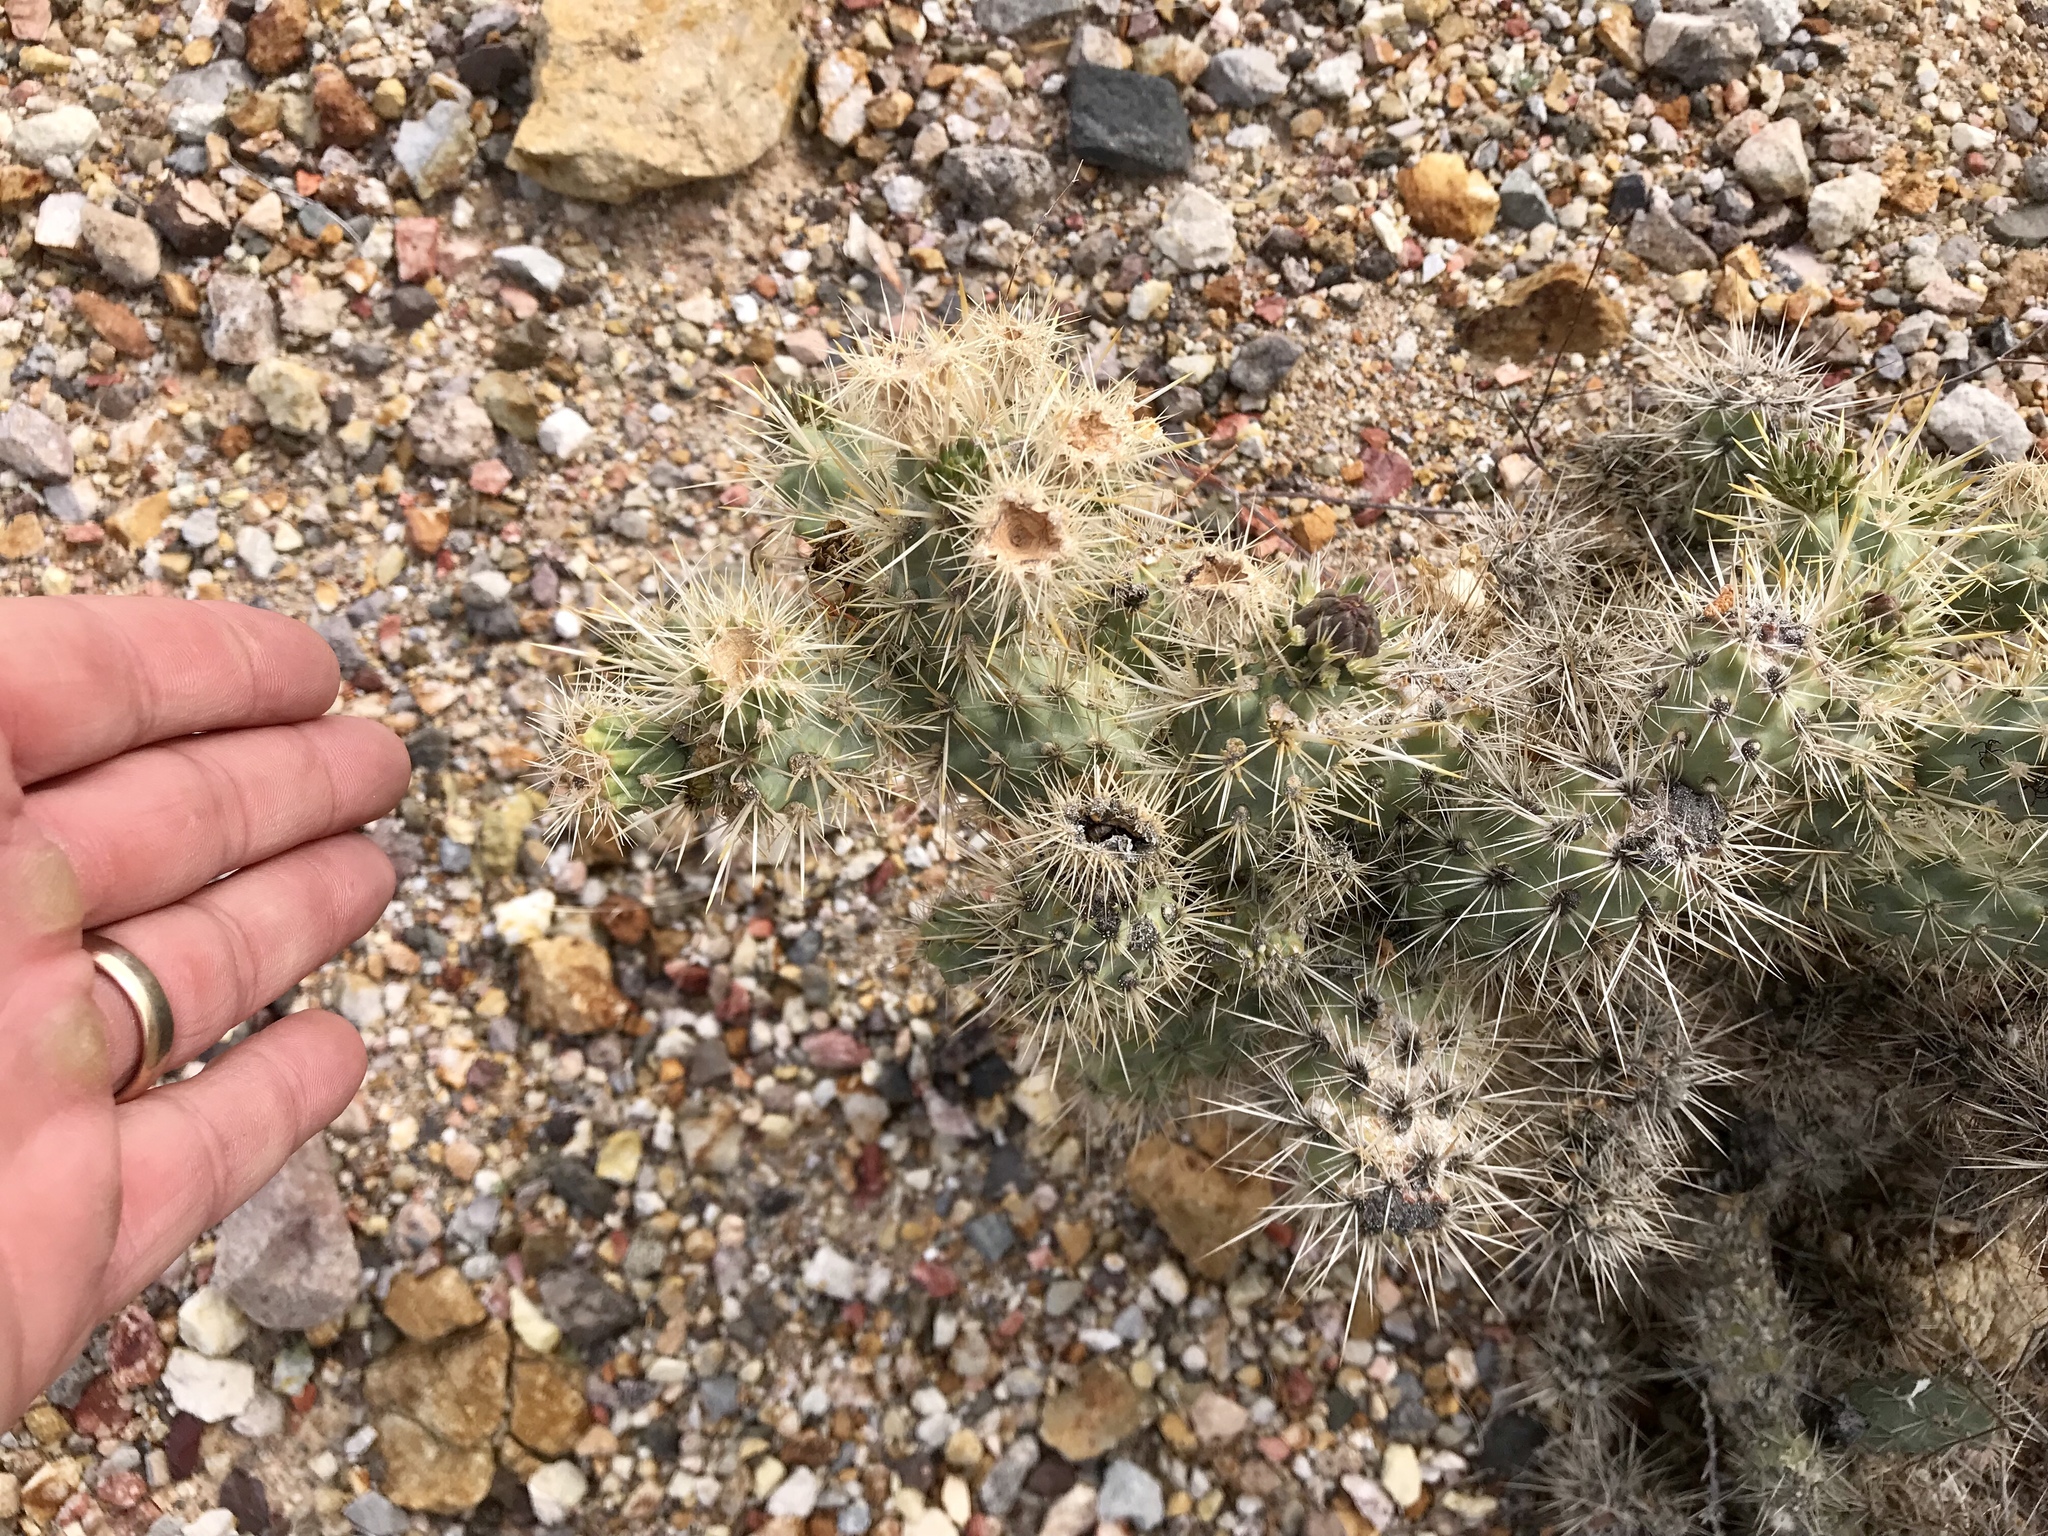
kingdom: Plantae
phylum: Tracheophyta
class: Magnoliopsida
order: Caryophyllales
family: Cactaceae
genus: Cylindropuntia
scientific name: Cylindropuntia echinocarpa
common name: Ground cholla
